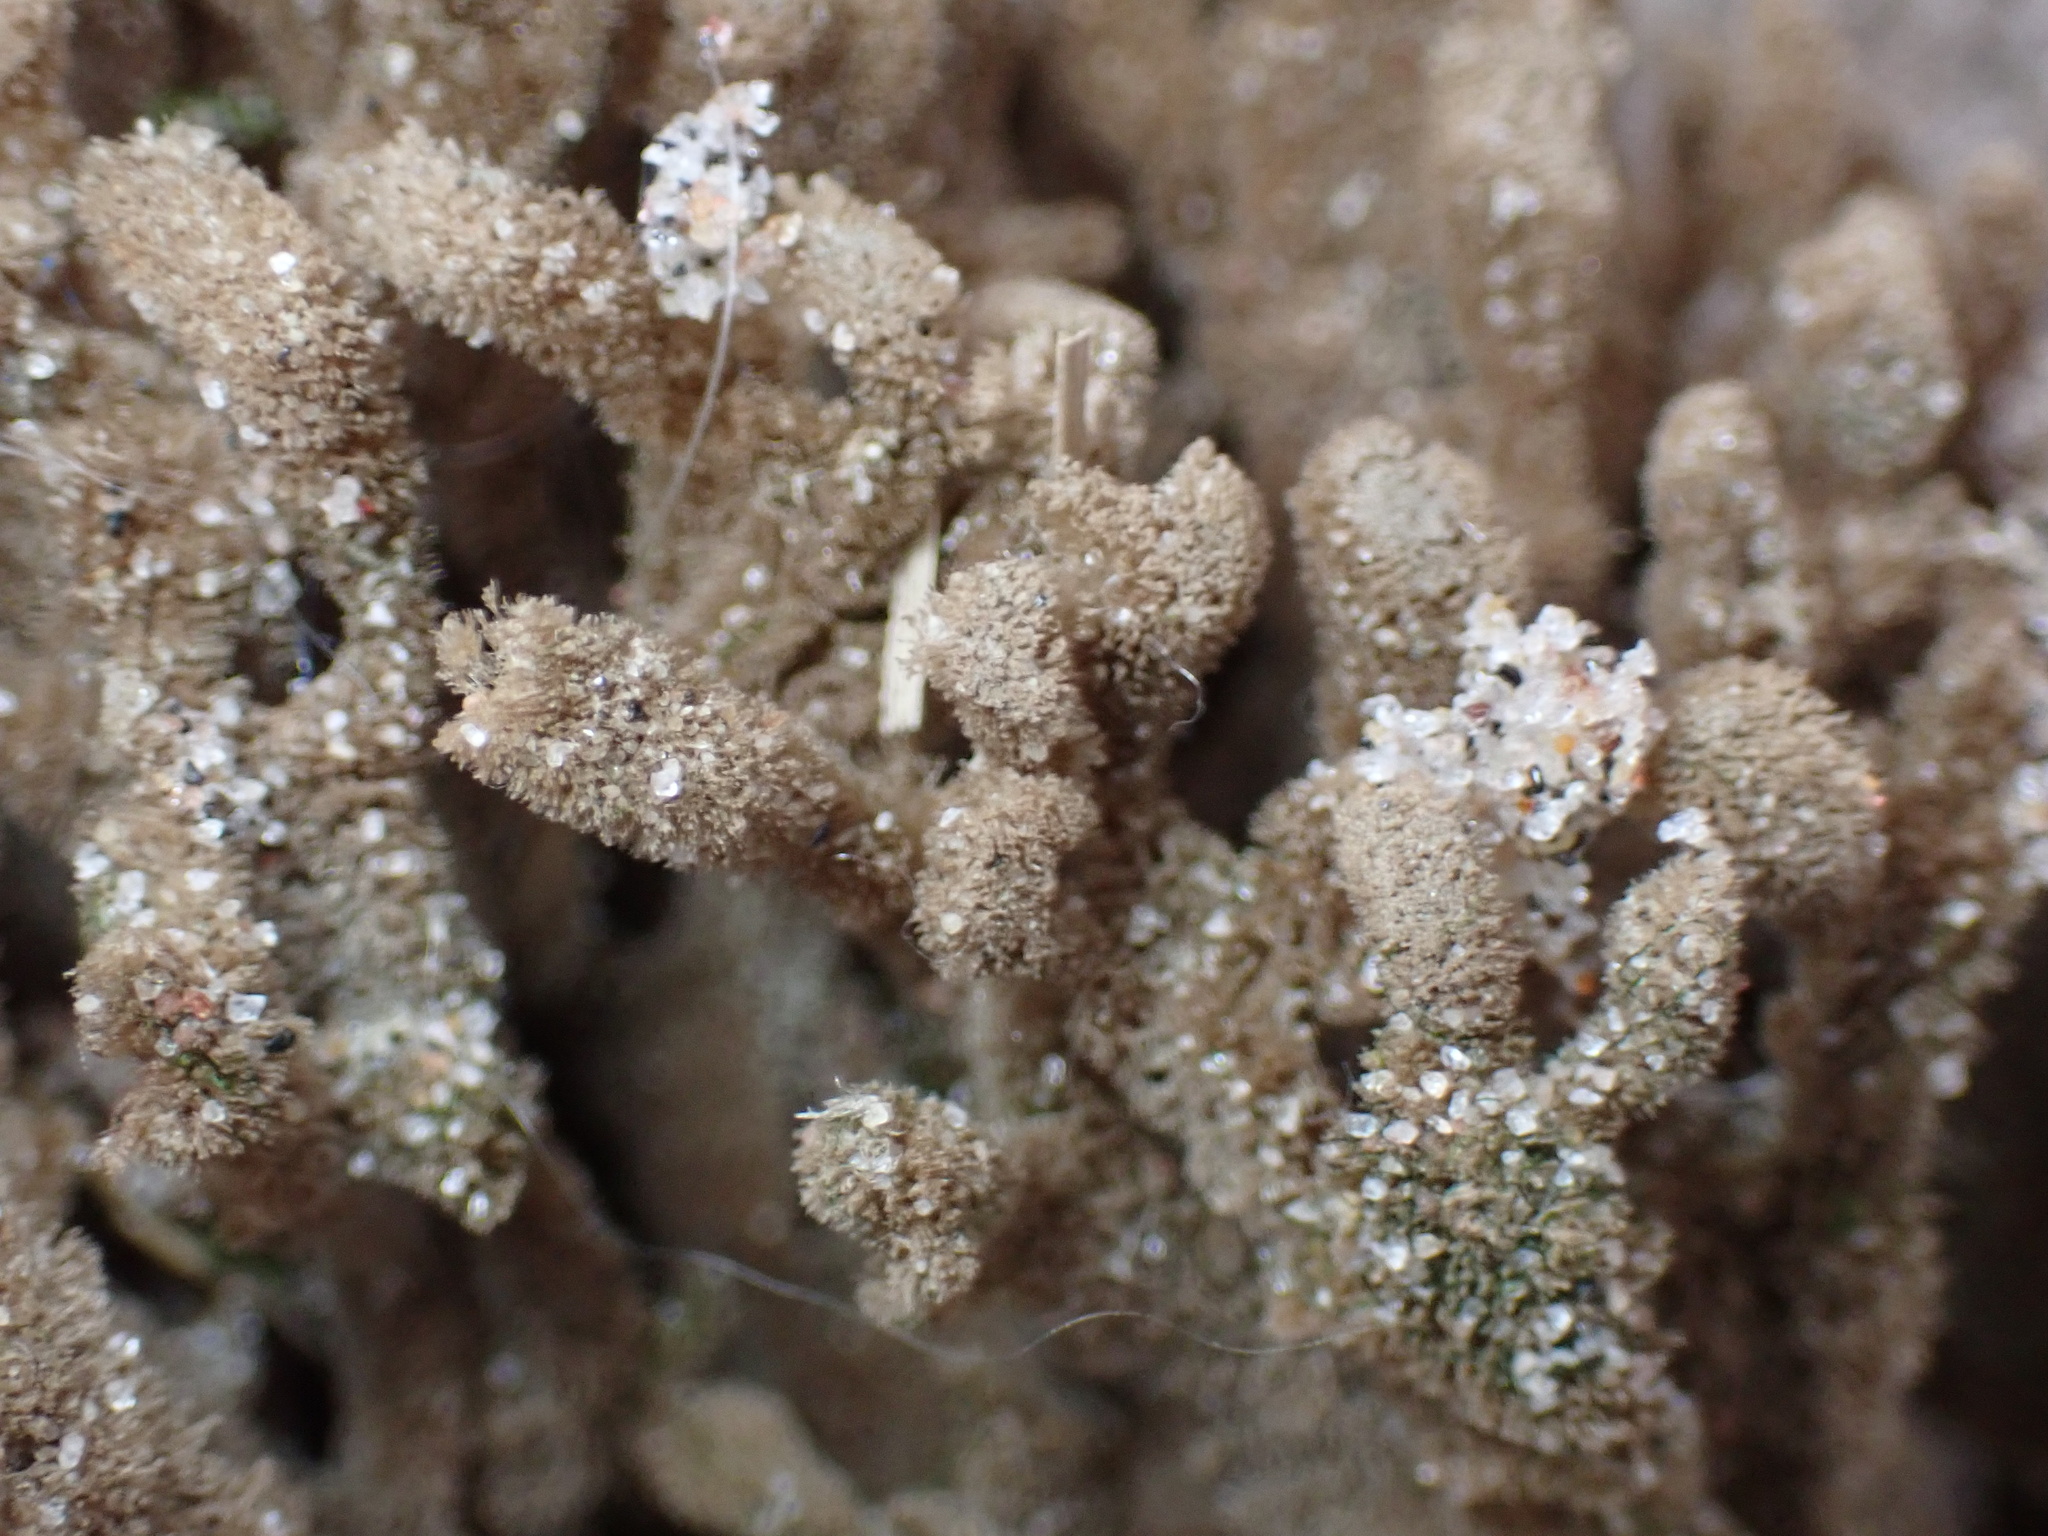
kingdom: Animalia
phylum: Porifera
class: Demospongiae
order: Poecilosclerida
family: Microcionidae
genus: Clathria
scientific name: Clathria prolifera
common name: Red beard sponge
